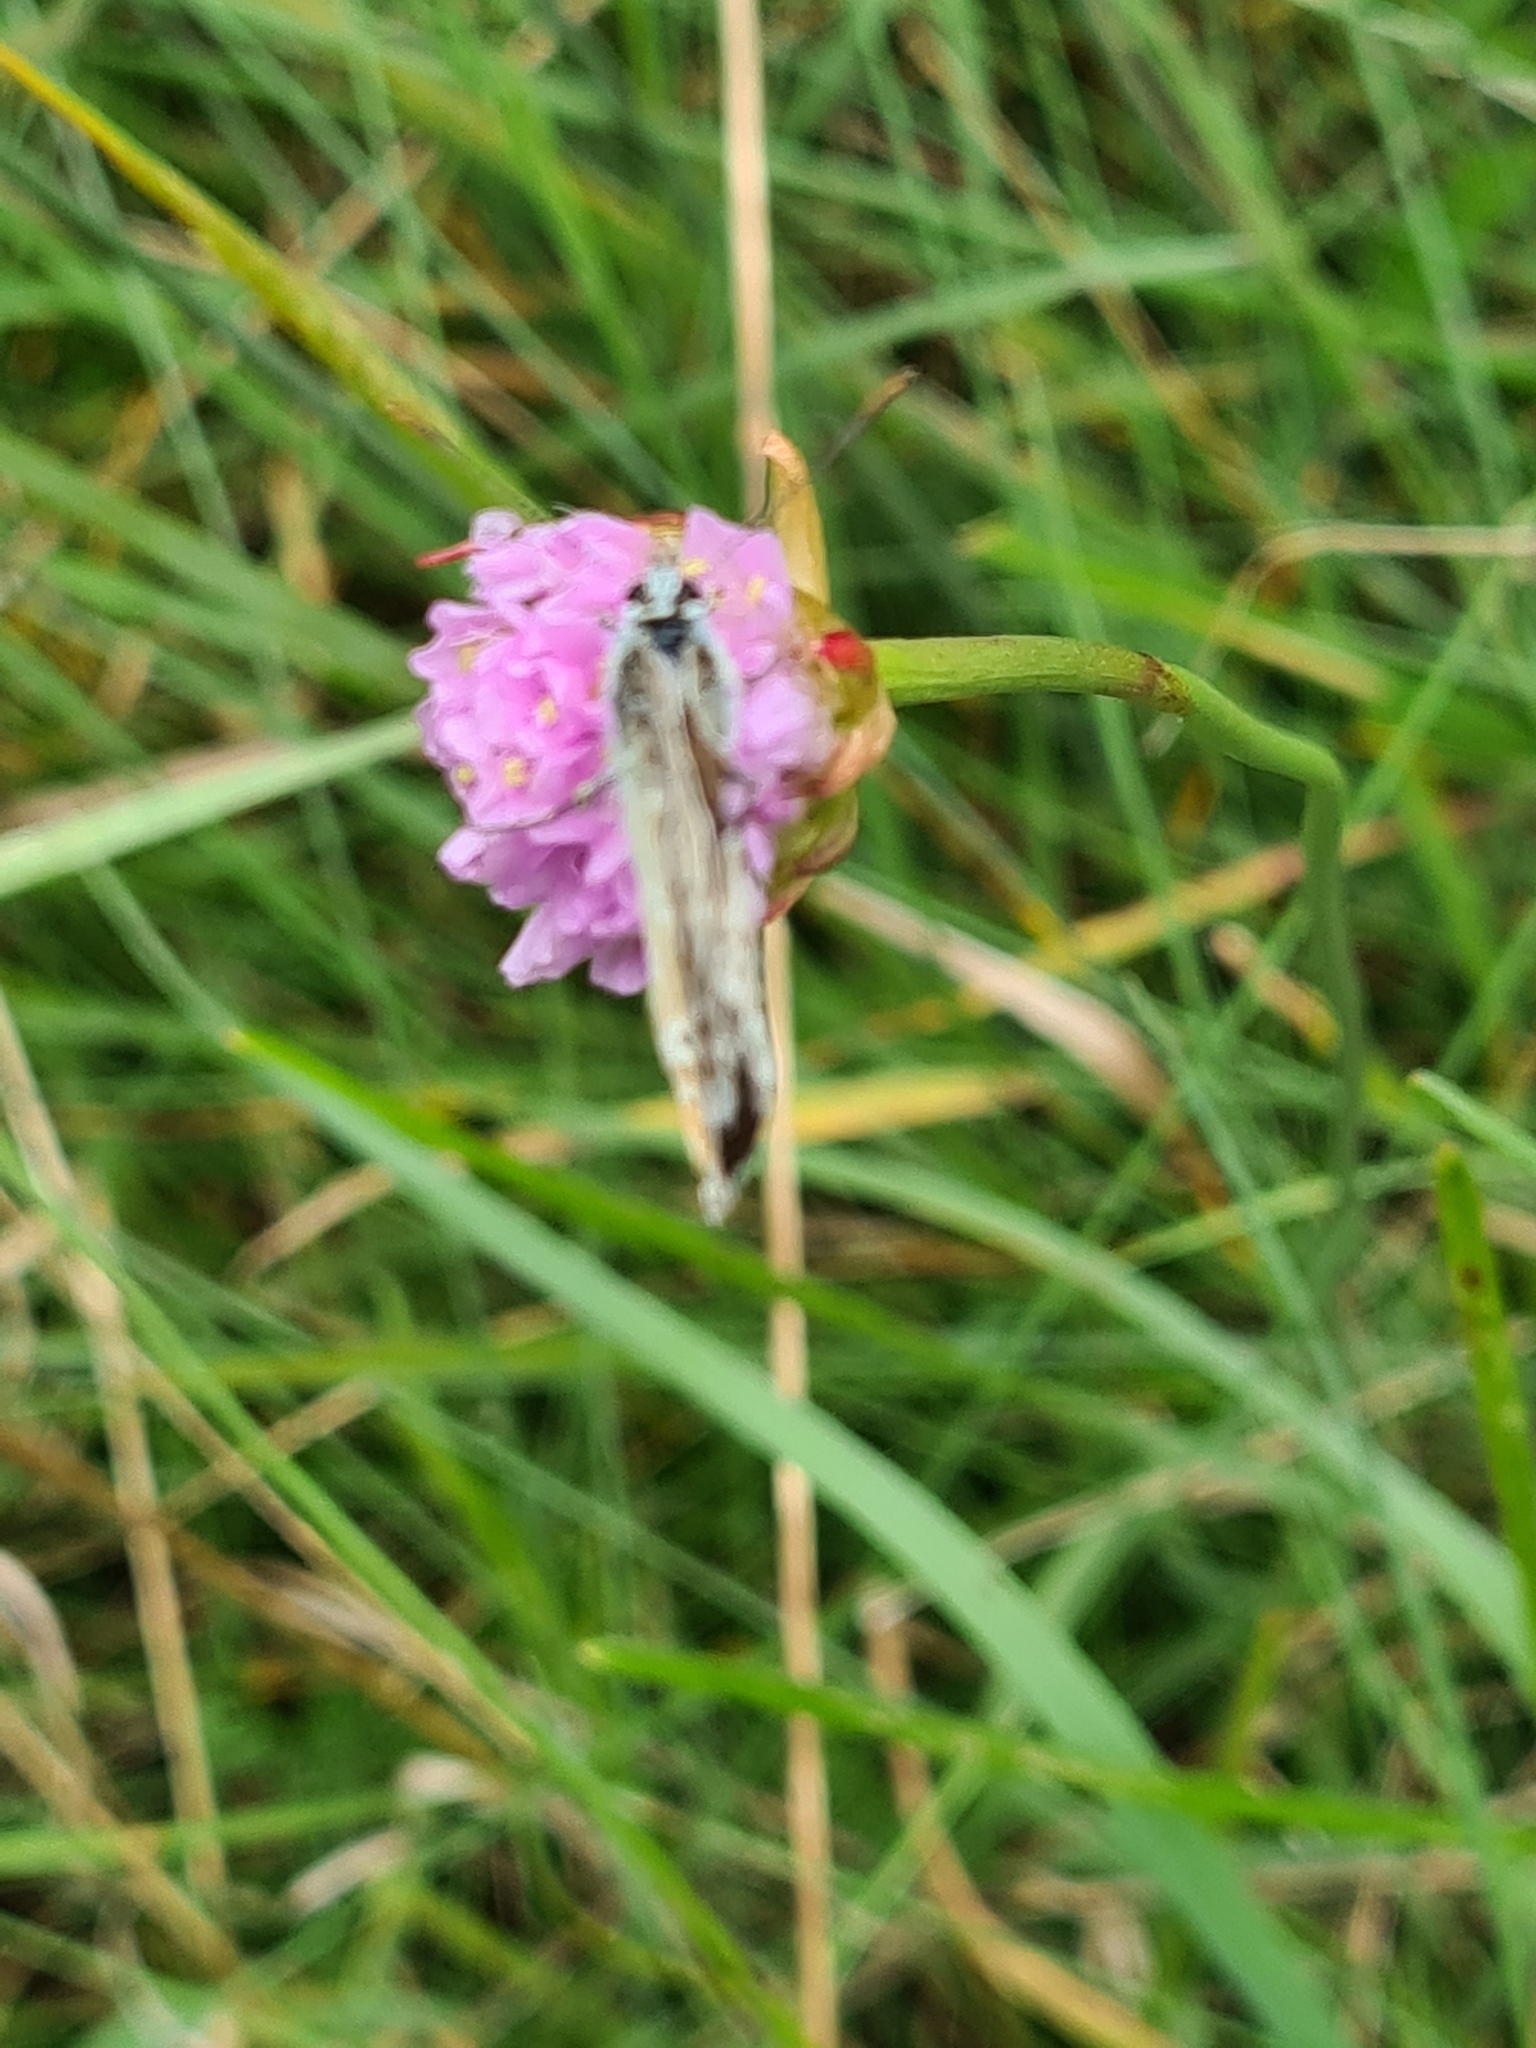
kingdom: Animalia
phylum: Arthropoda
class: Insecta
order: Lepidoptera
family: Lycaenidae
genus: Lysandra
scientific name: Lysandra coridon
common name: Chalkhill blue
